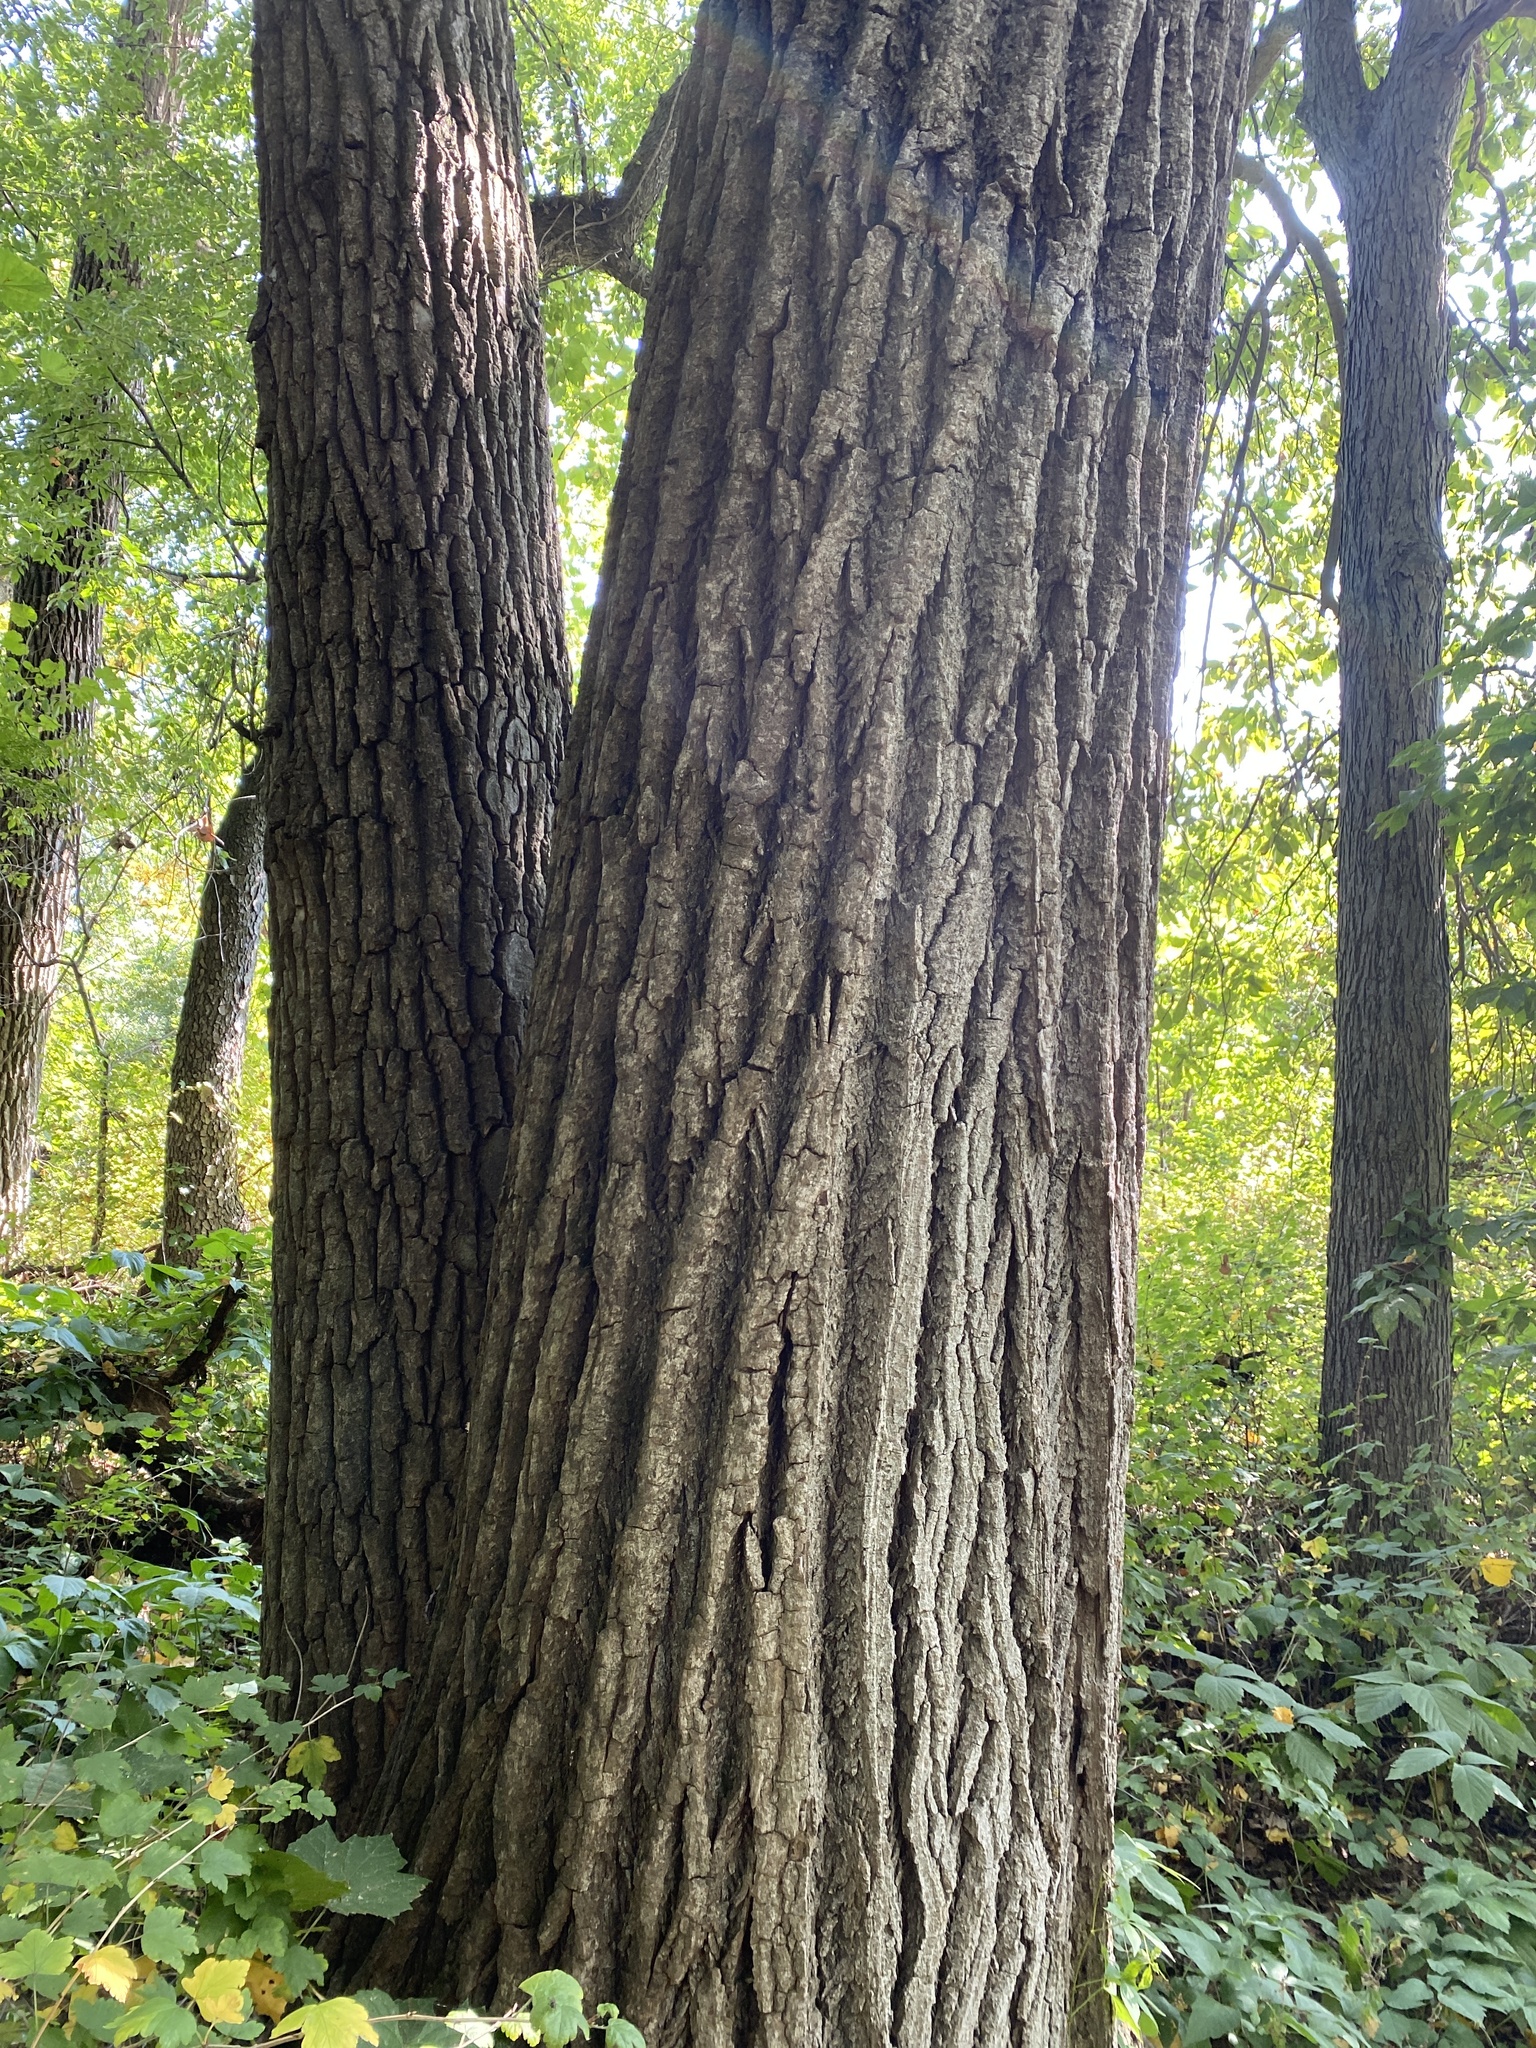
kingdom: Plantae
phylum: Tracheophyta
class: Magnoliopsida
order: Malpighiales
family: Salicaceae
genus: Populus
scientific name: Populus deltoides
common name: Eastern cottonwood
